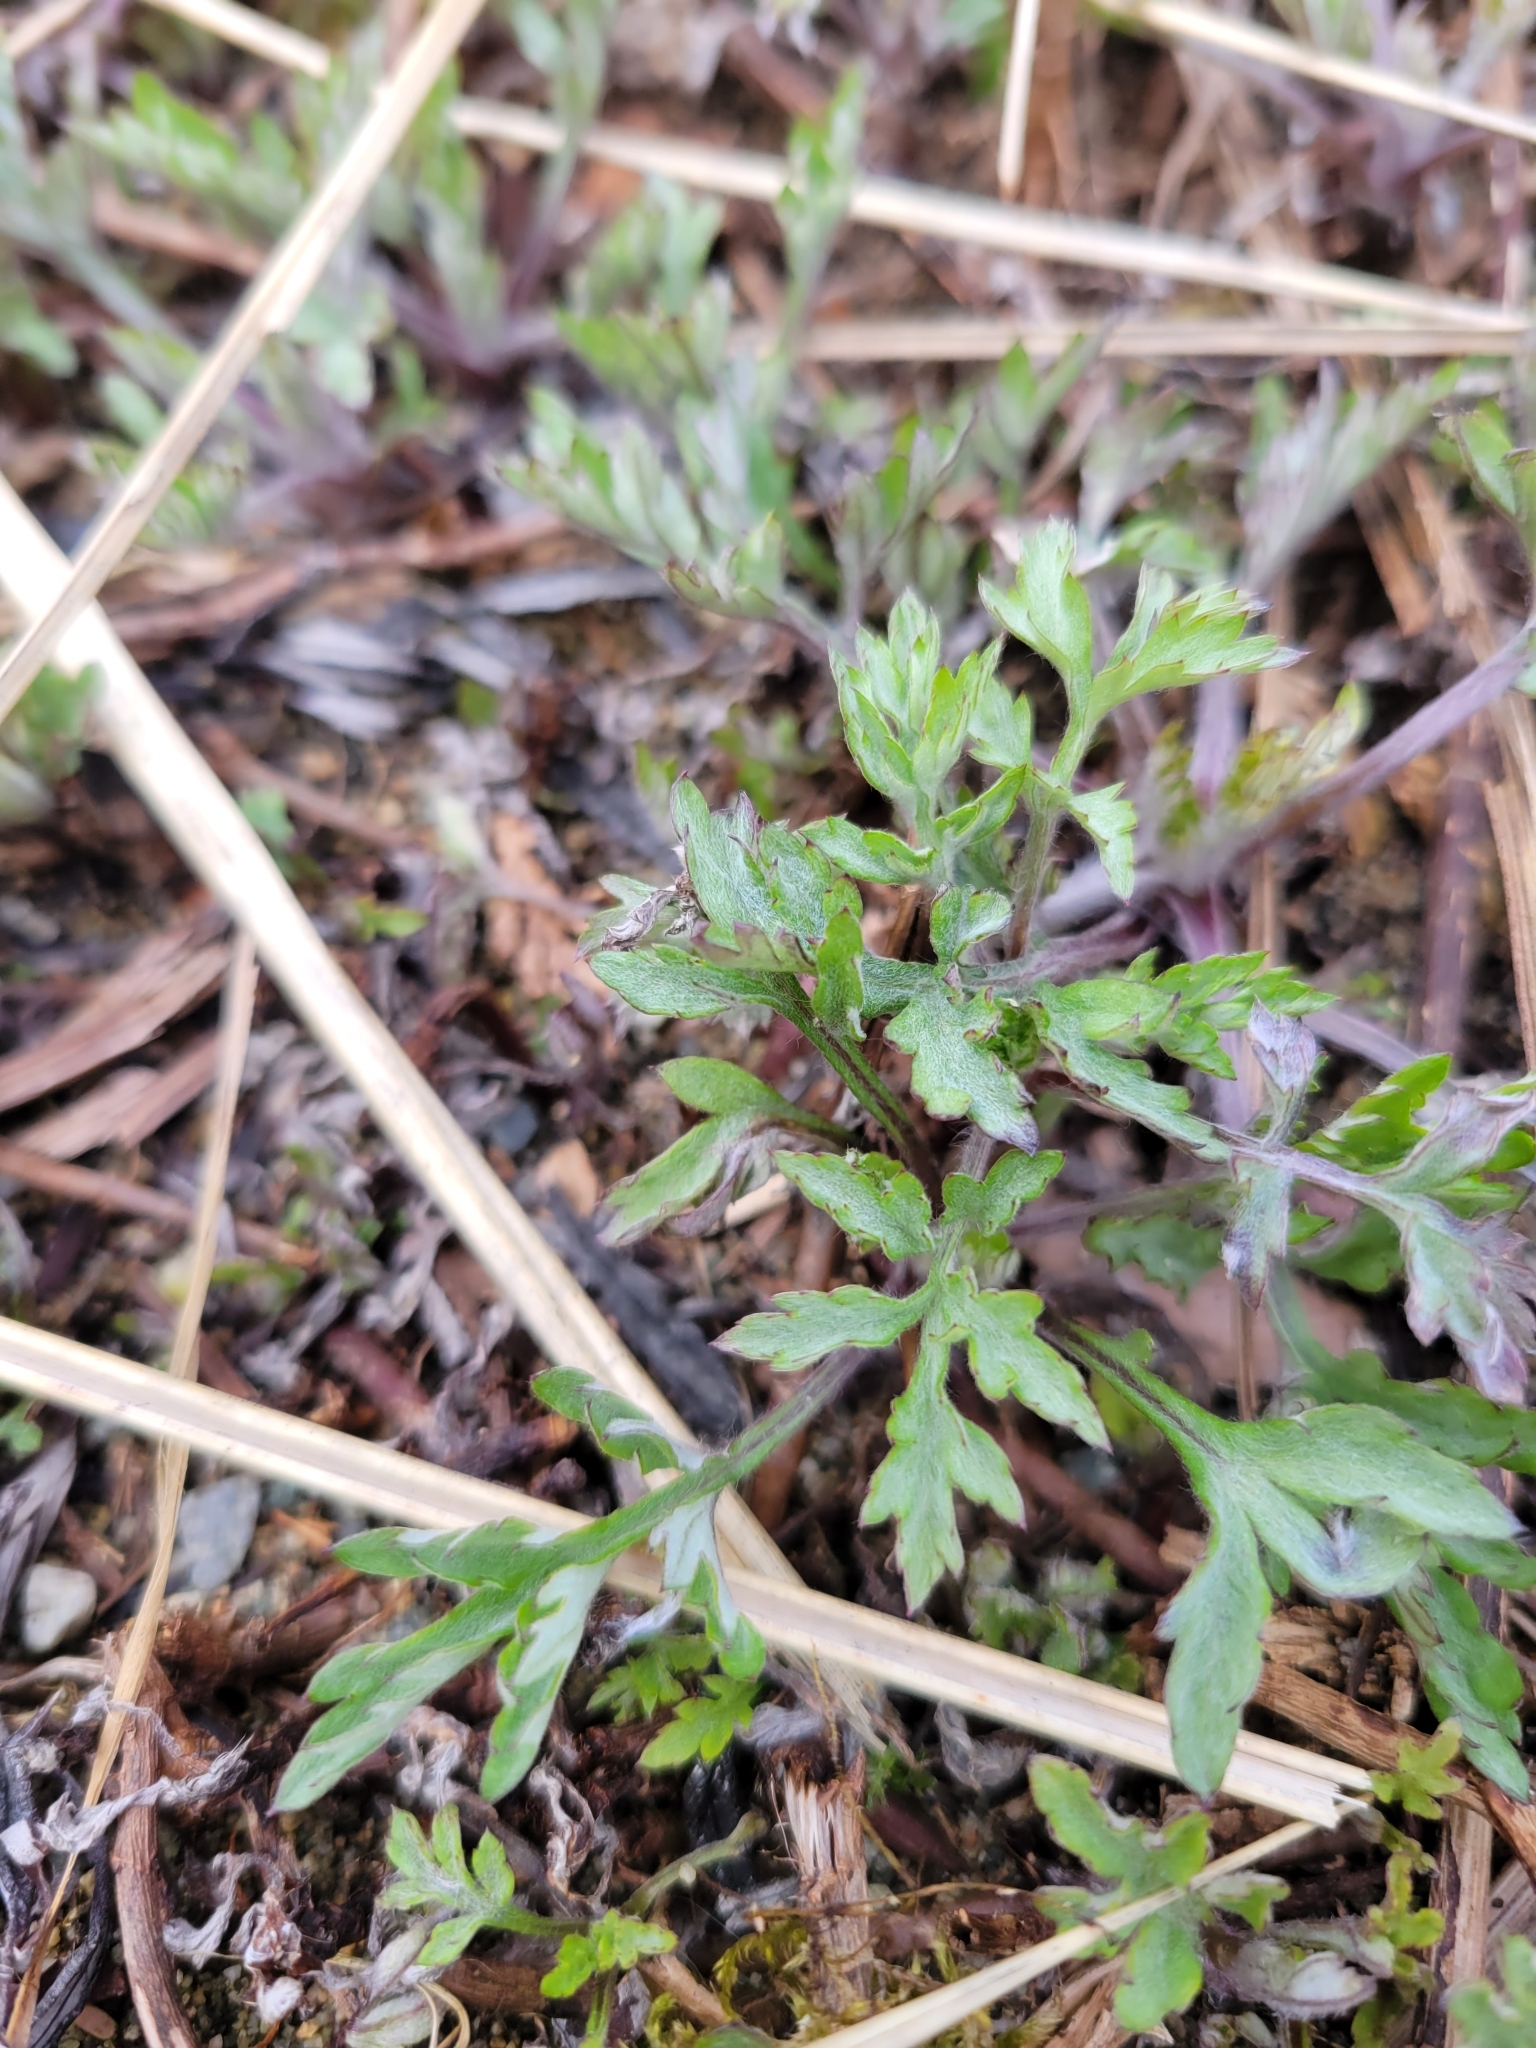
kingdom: Plantae
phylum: Tracheophyta
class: Magnoliopsida
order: Asterales
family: Asteraceae
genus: Eriophyllum
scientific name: Eriophyllum lanatum
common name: Common woolly-sunflower
